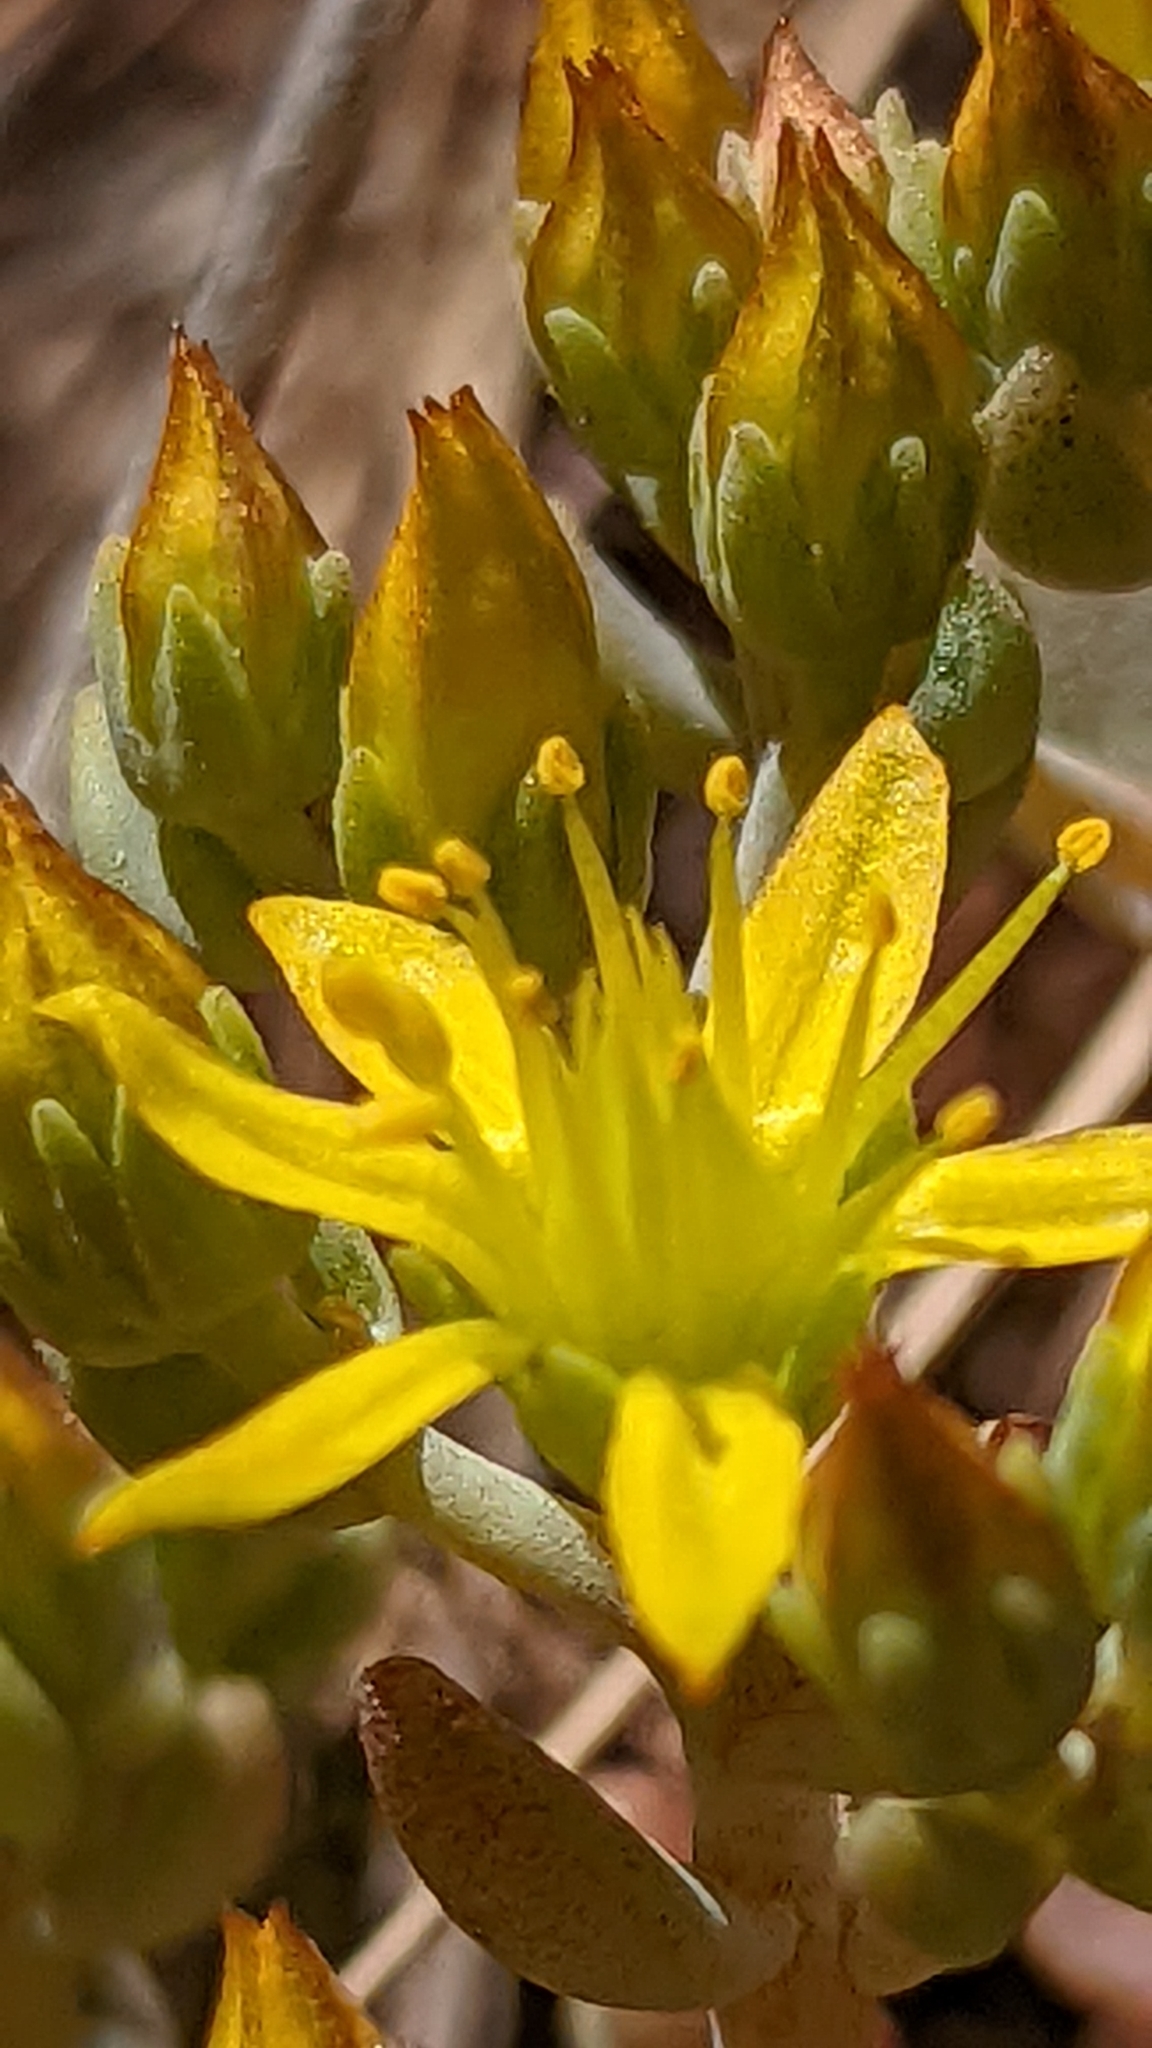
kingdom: Plantae
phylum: Tracheophyta
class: Magnoliopsida
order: Saxifragales
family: Crassulaceae
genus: Sedum
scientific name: Sedum debile
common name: Weak-stem stonecrop
